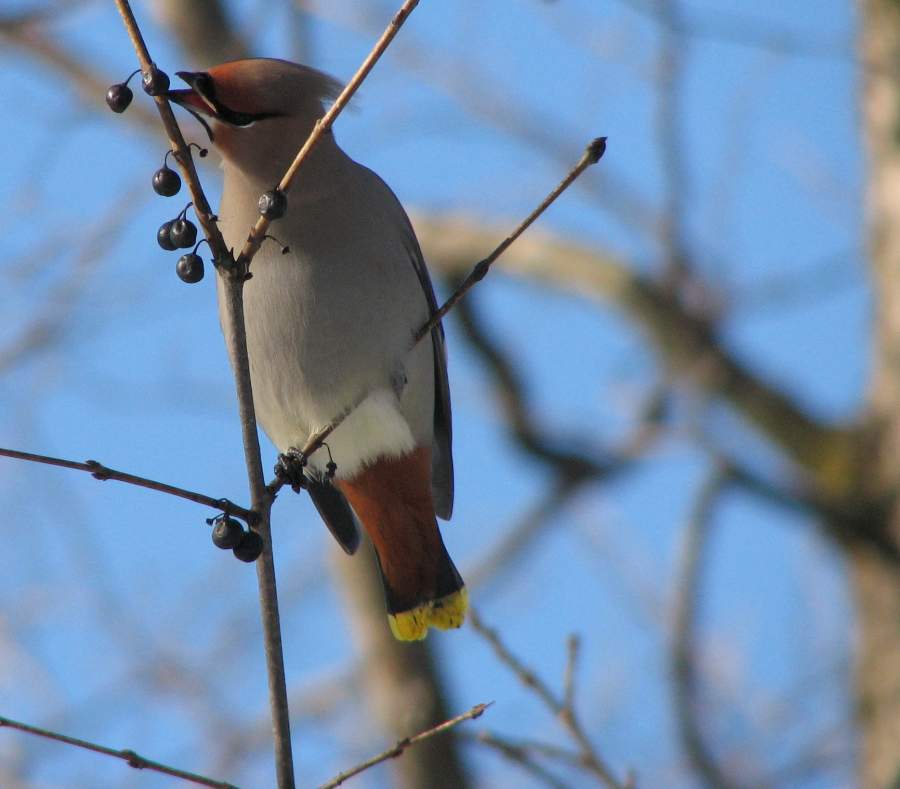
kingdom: Animalia
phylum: Chordata
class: Aves
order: Passeriformes
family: Bombycillidae
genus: Bombycilla
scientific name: Bombycilla garrulus
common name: Bohemian waxwing
